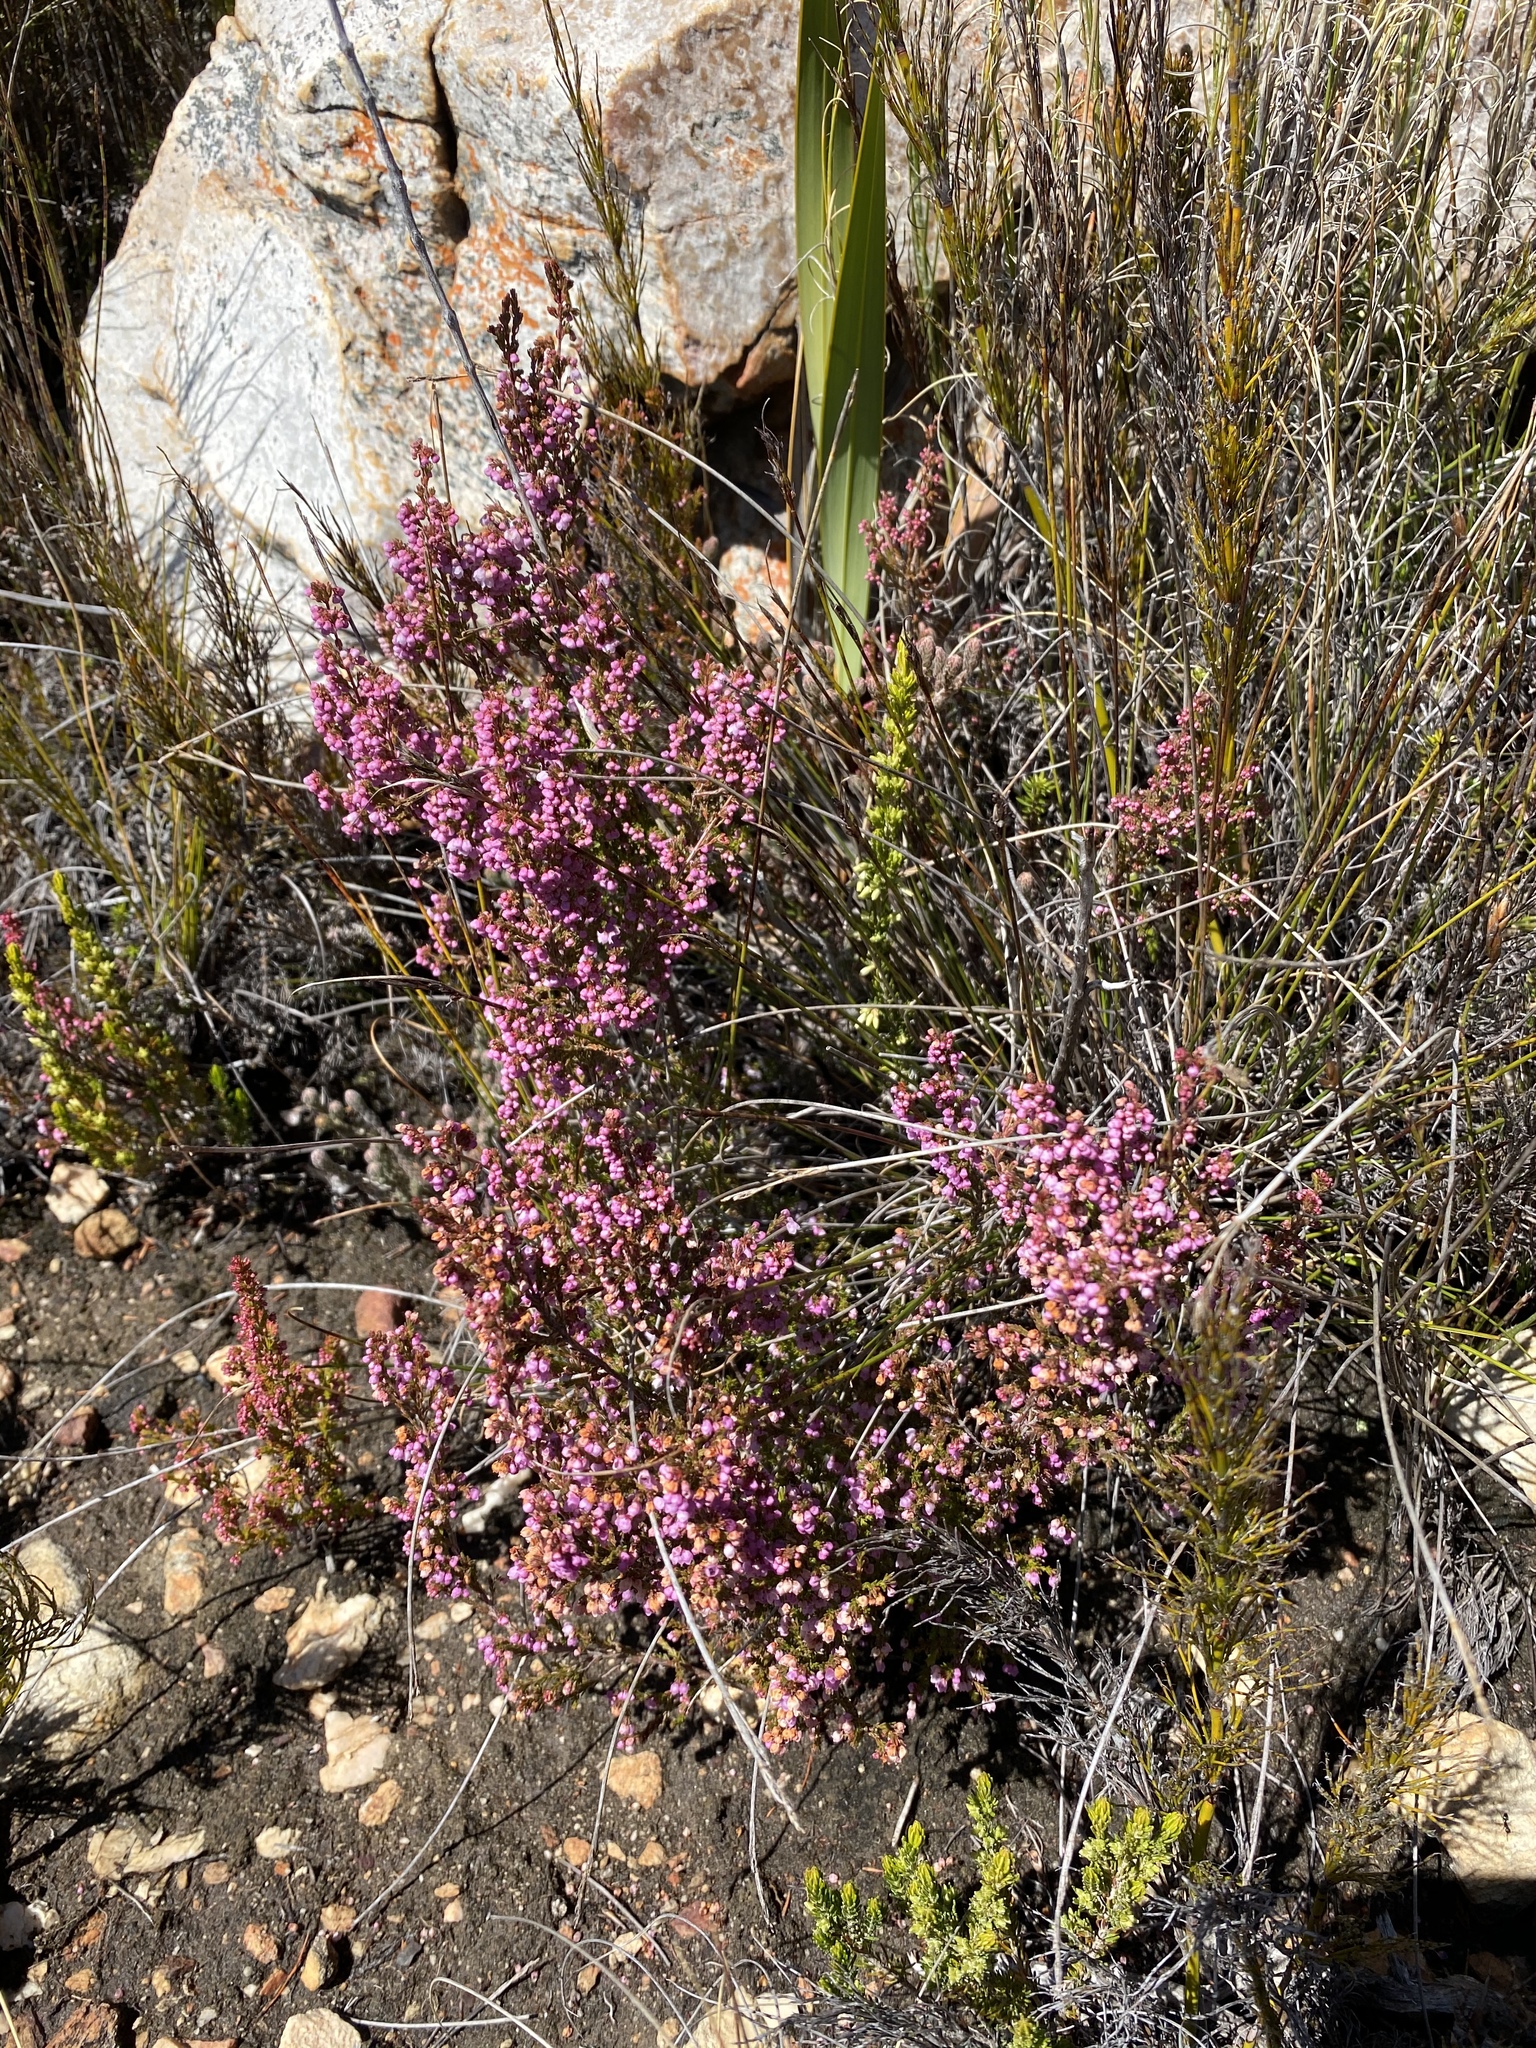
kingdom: Plantae
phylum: Tracheophyta
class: Magnoliopsida
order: Ericales
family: Ericaceae
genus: Erica
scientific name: Erica quadrangularis
